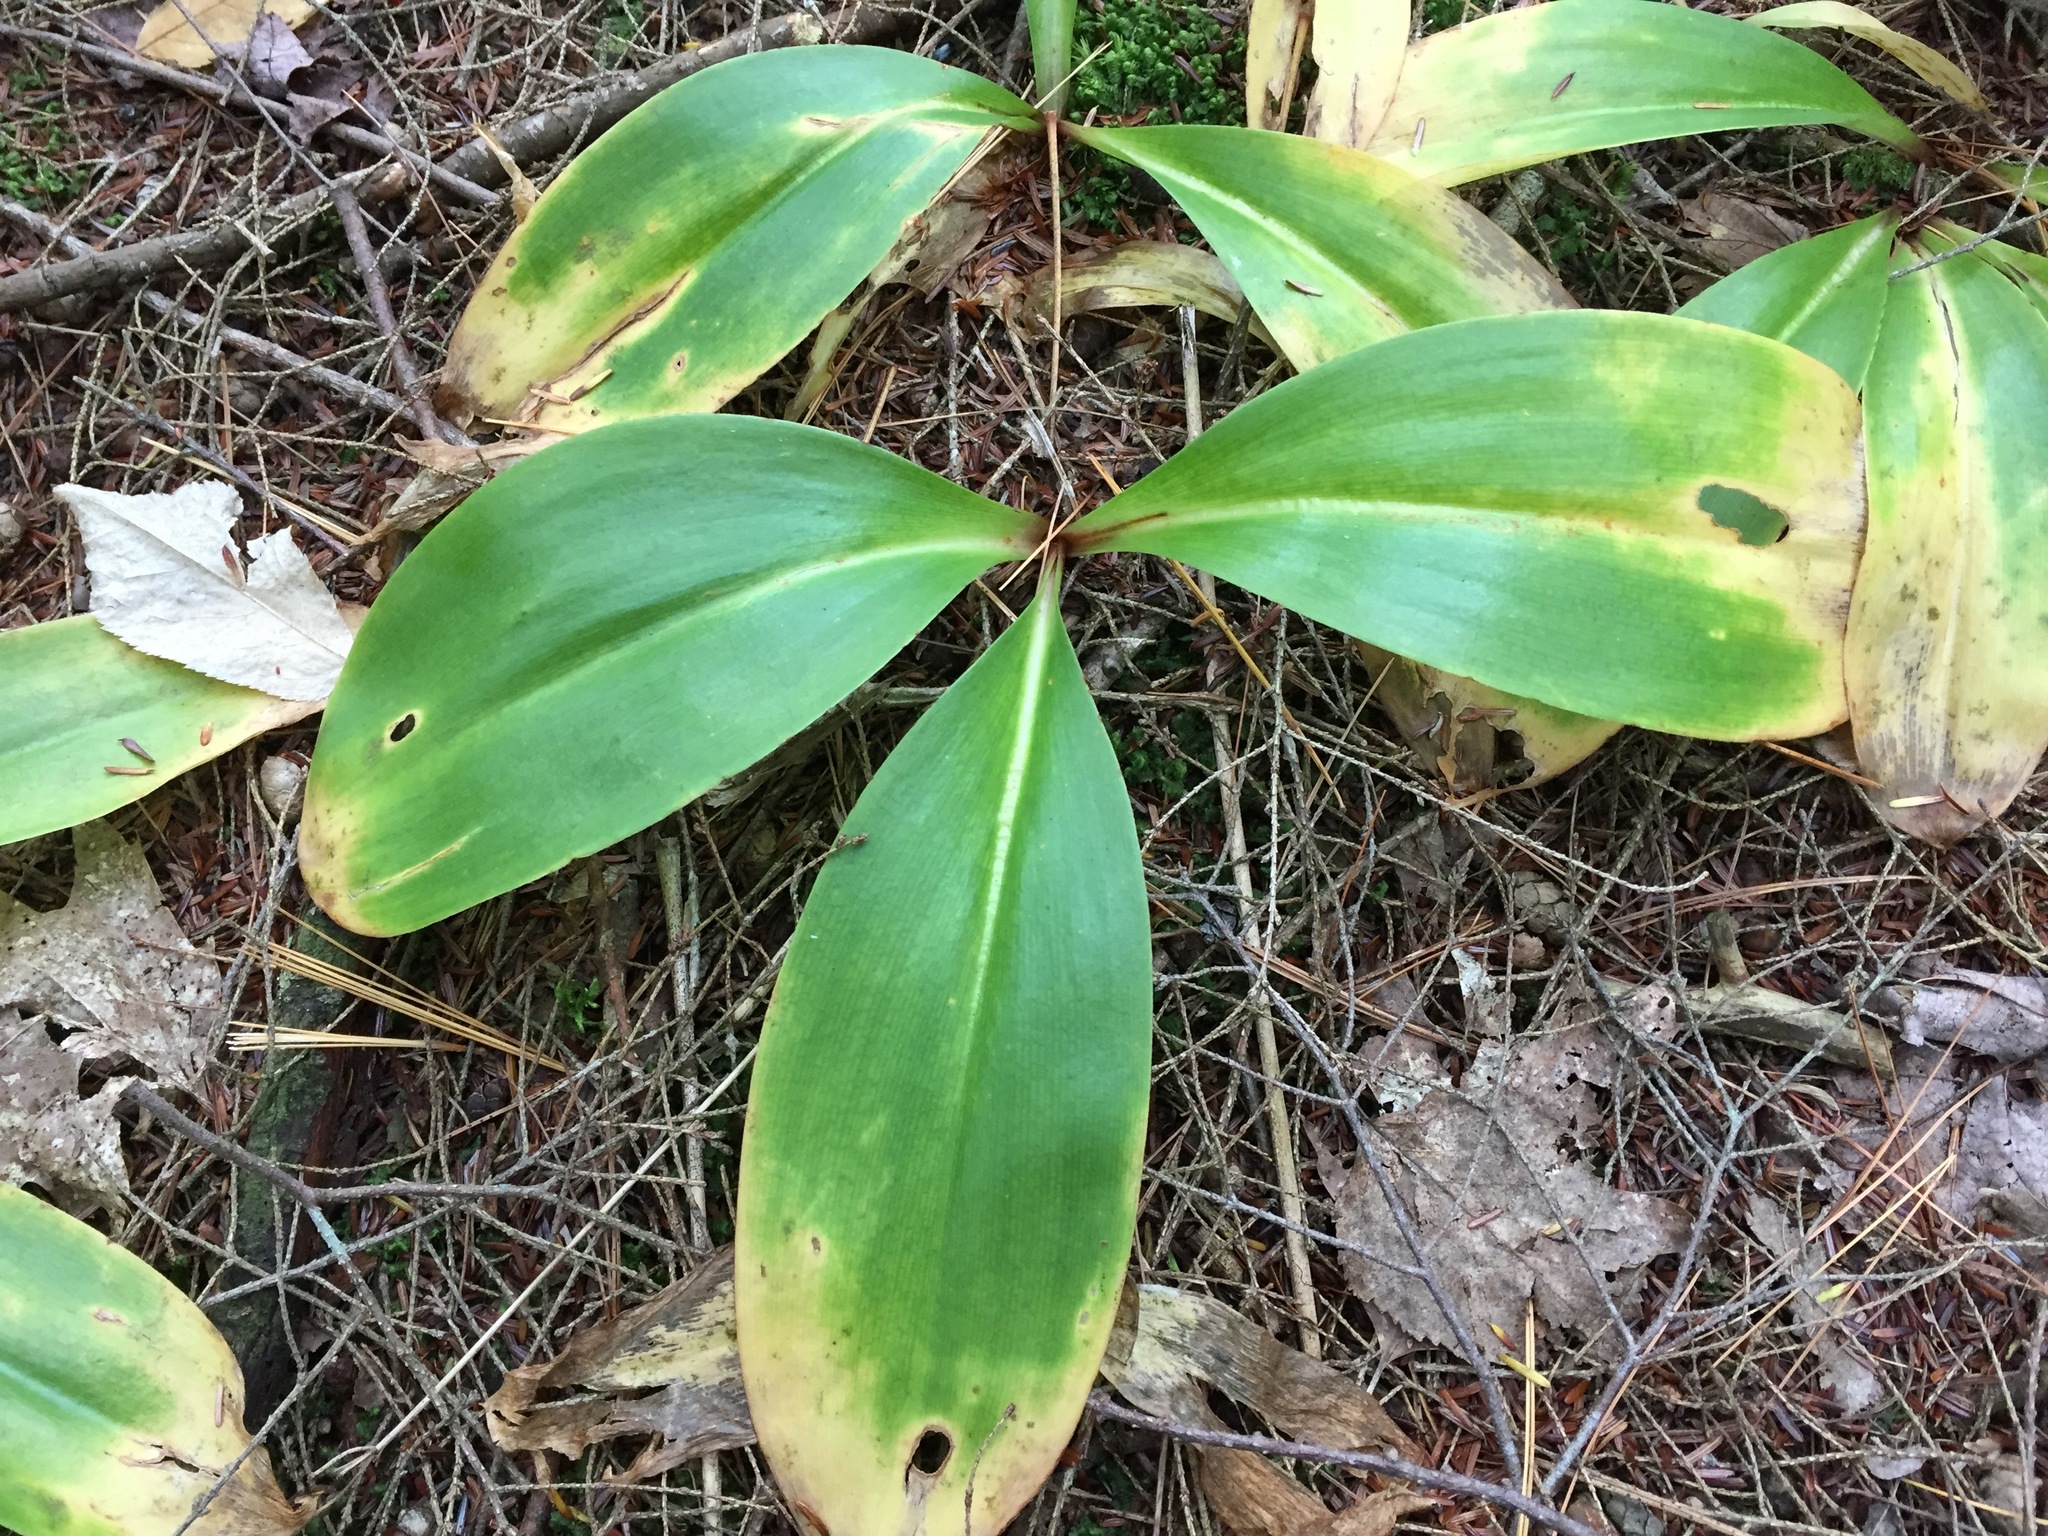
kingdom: Plantae
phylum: Tracheophyta
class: Liliopsida
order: Liliales
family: Liliaceae
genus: Clintonia
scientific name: Clintonia borealis
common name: Yellow clintonia
